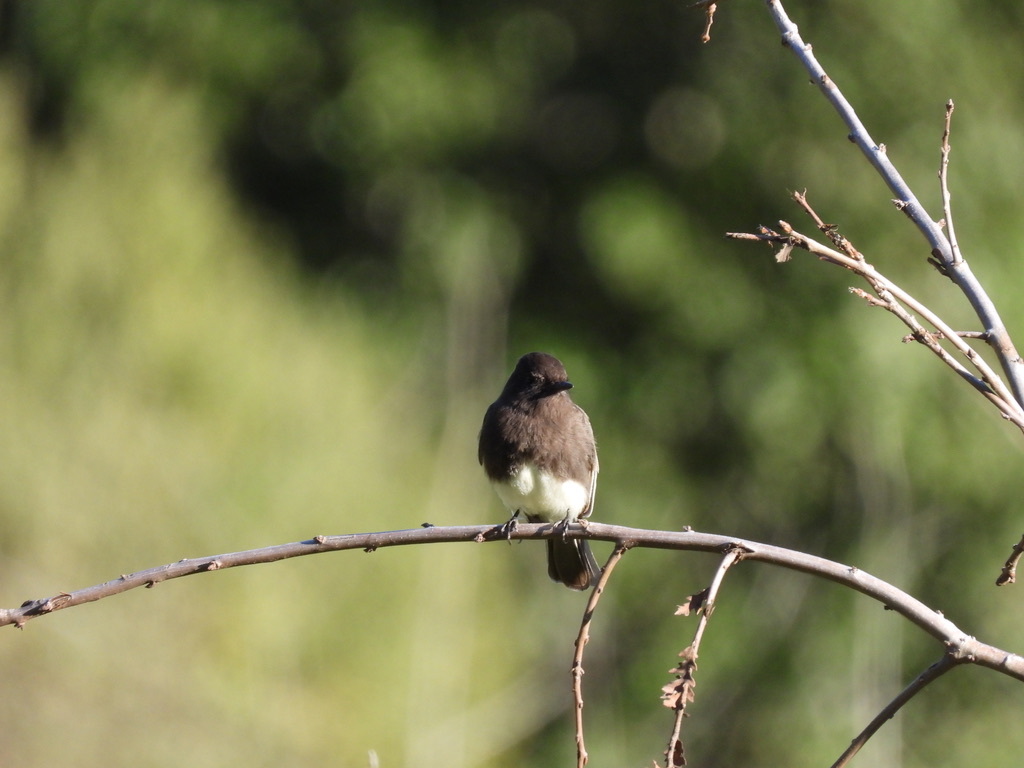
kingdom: Animalia
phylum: Chordata
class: Aves
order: Passeriformes
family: Tyrannidae
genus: Sayornis
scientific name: Sayornis nigricans
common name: Black phoebe
